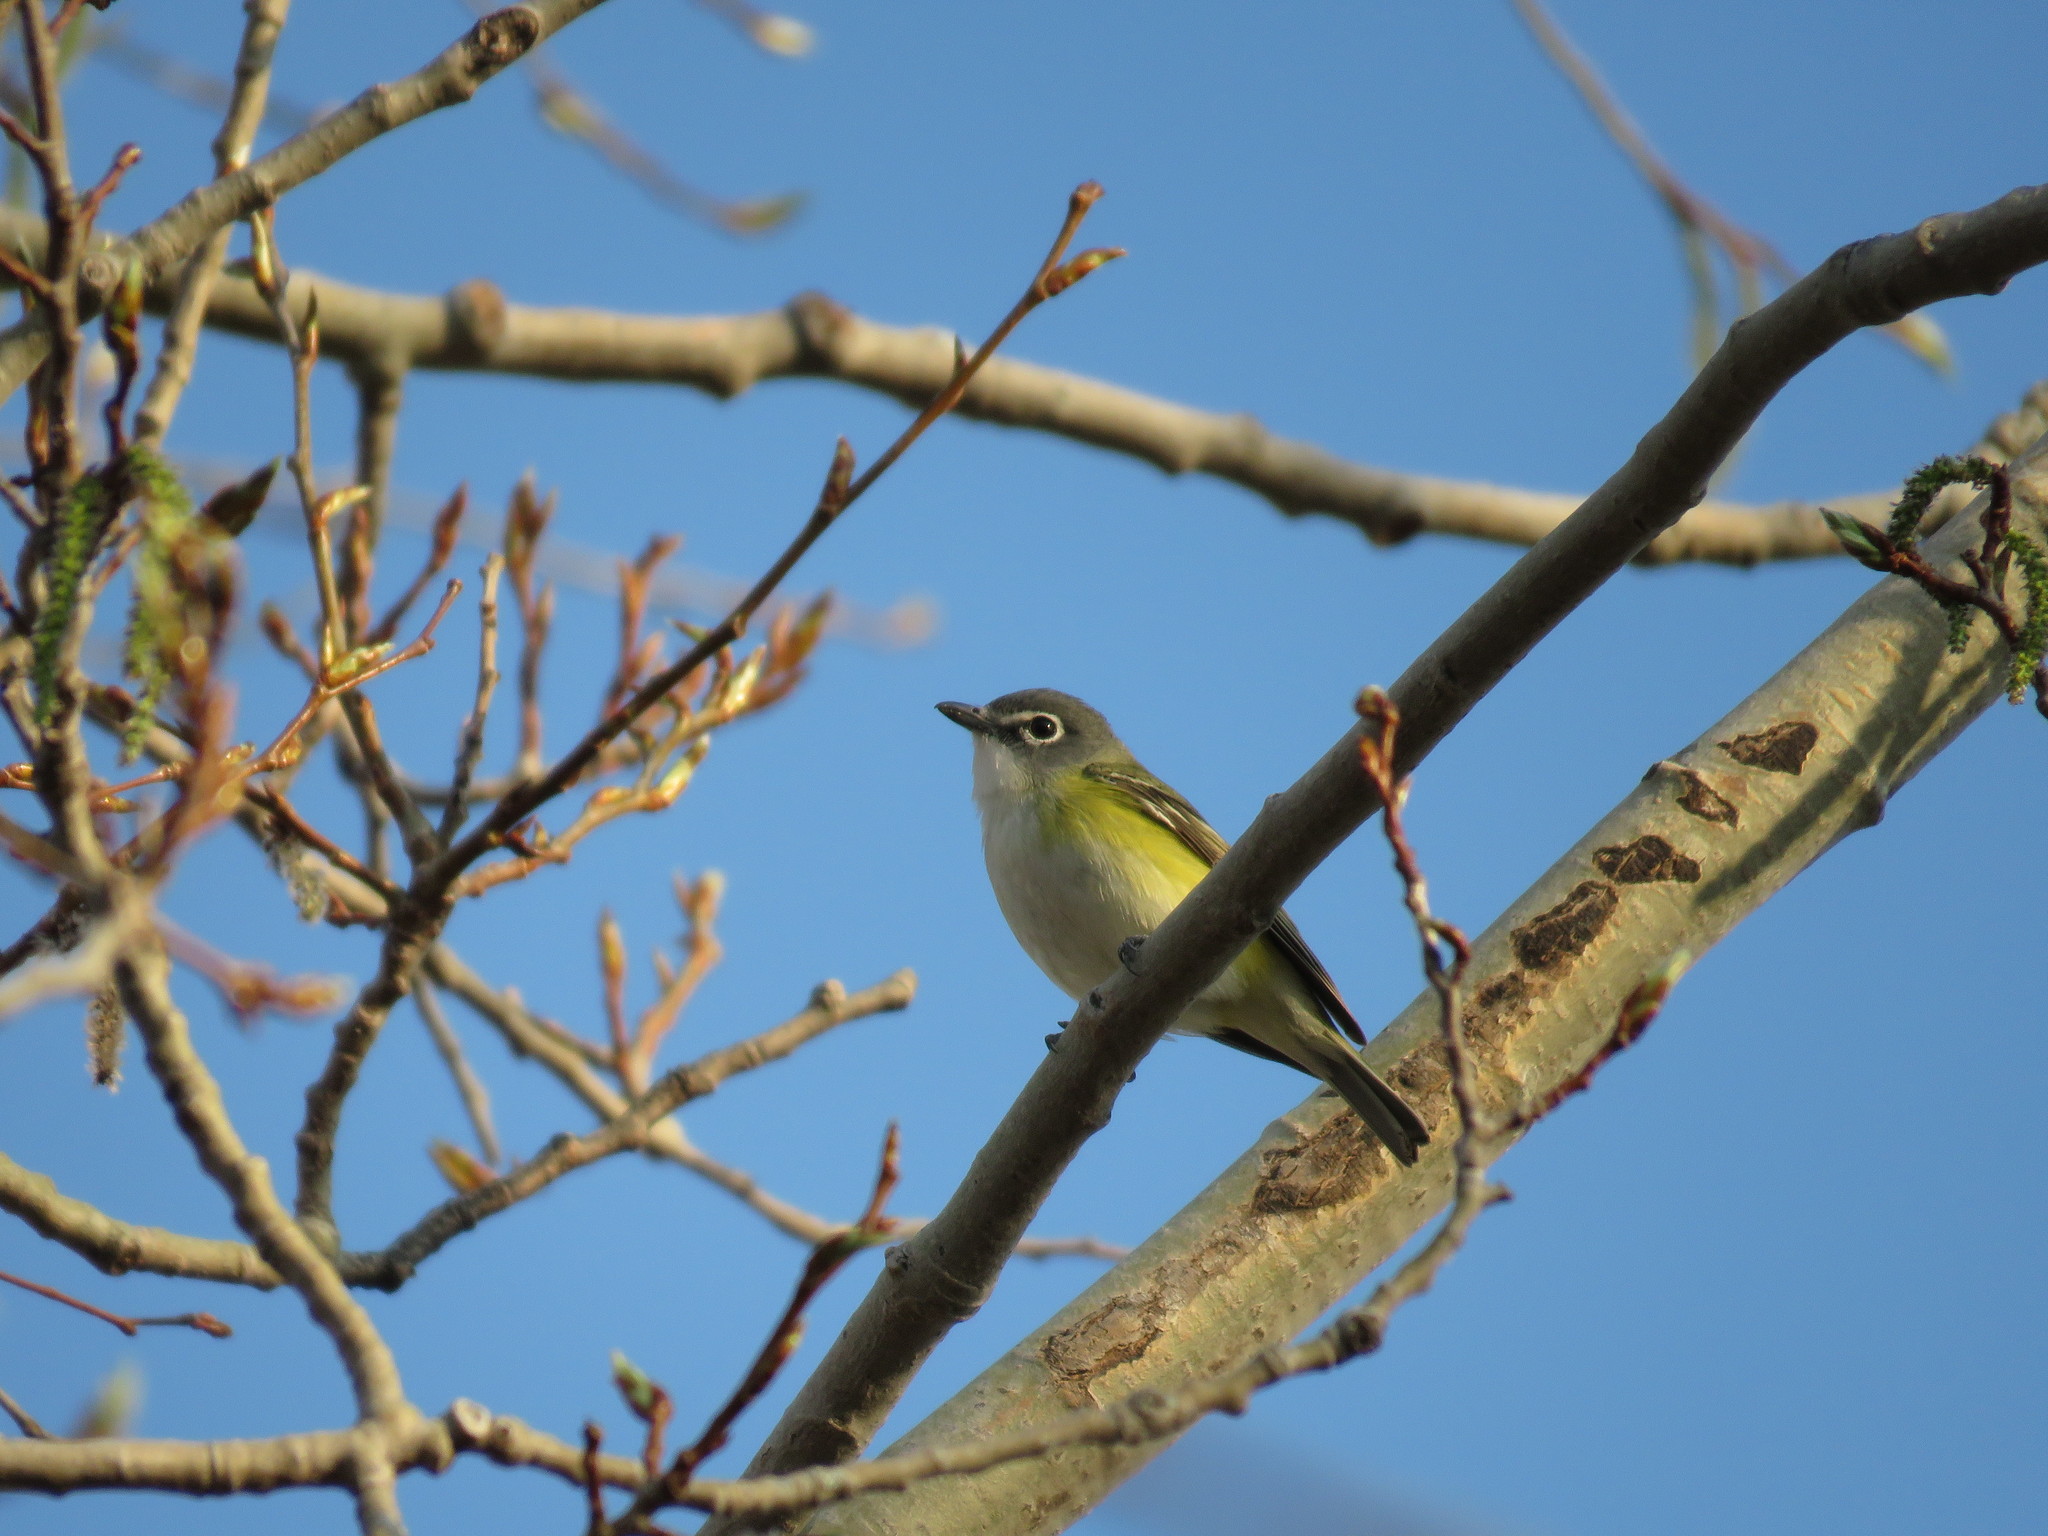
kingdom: Animalia
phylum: Chordata
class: Aves
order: Passeriformes
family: Vireonidae
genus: Vireo
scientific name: Vireo solitarius
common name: Blue-headed vireo
